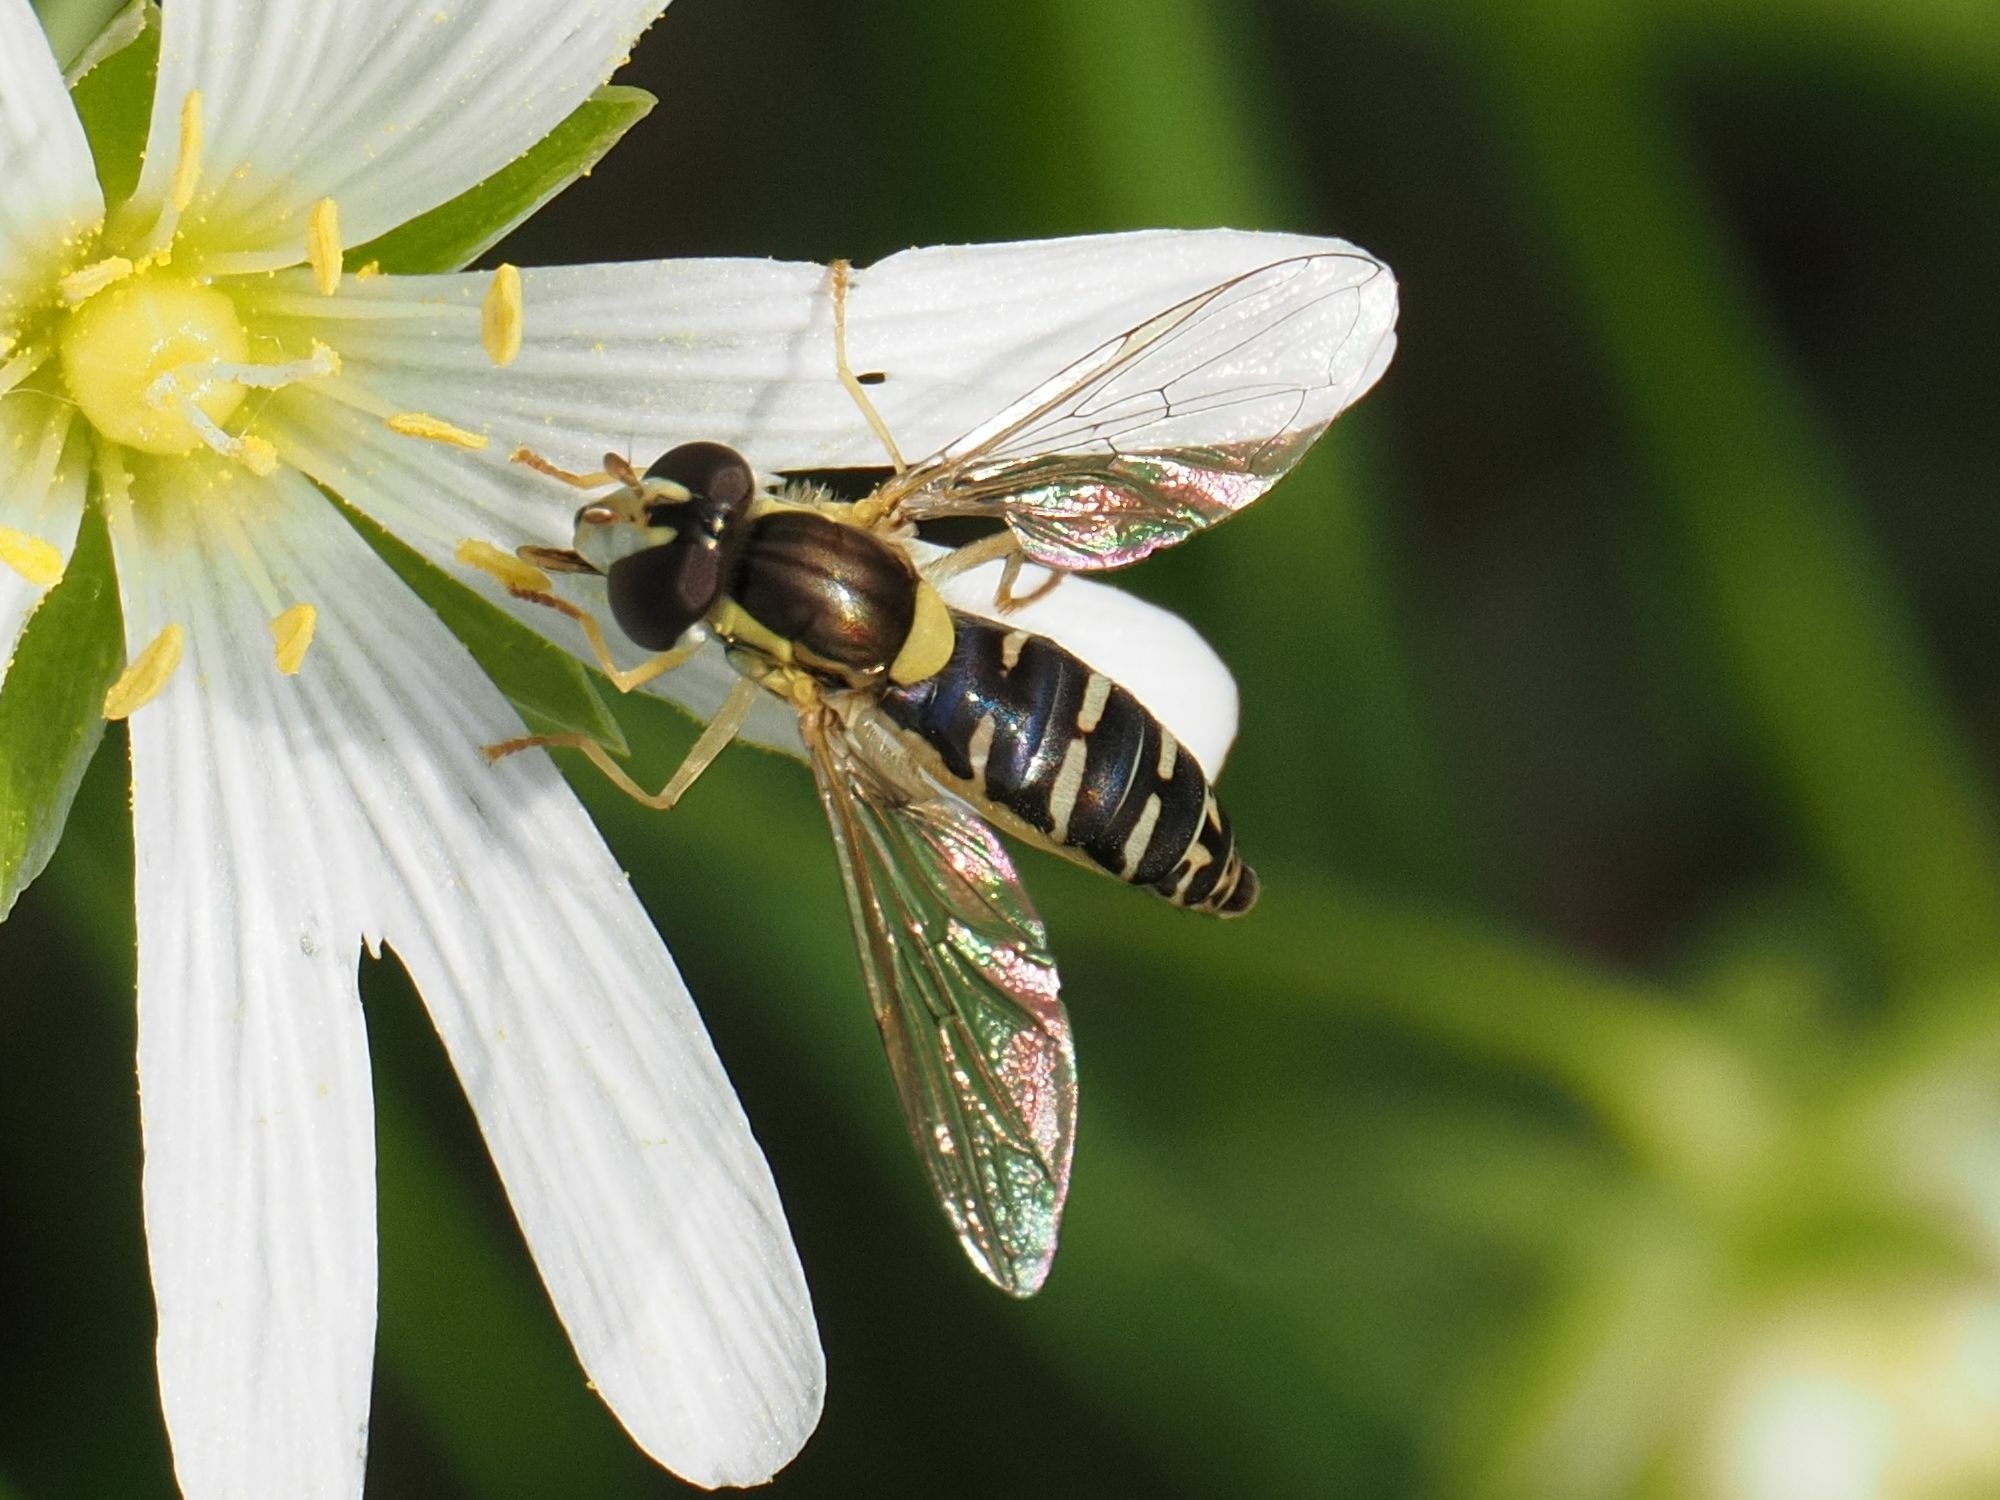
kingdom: Animalia
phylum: Arthropoda
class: Insecta
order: Diptera
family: Syrphidae
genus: Sphaerophoria
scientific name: Sphaerophoria
